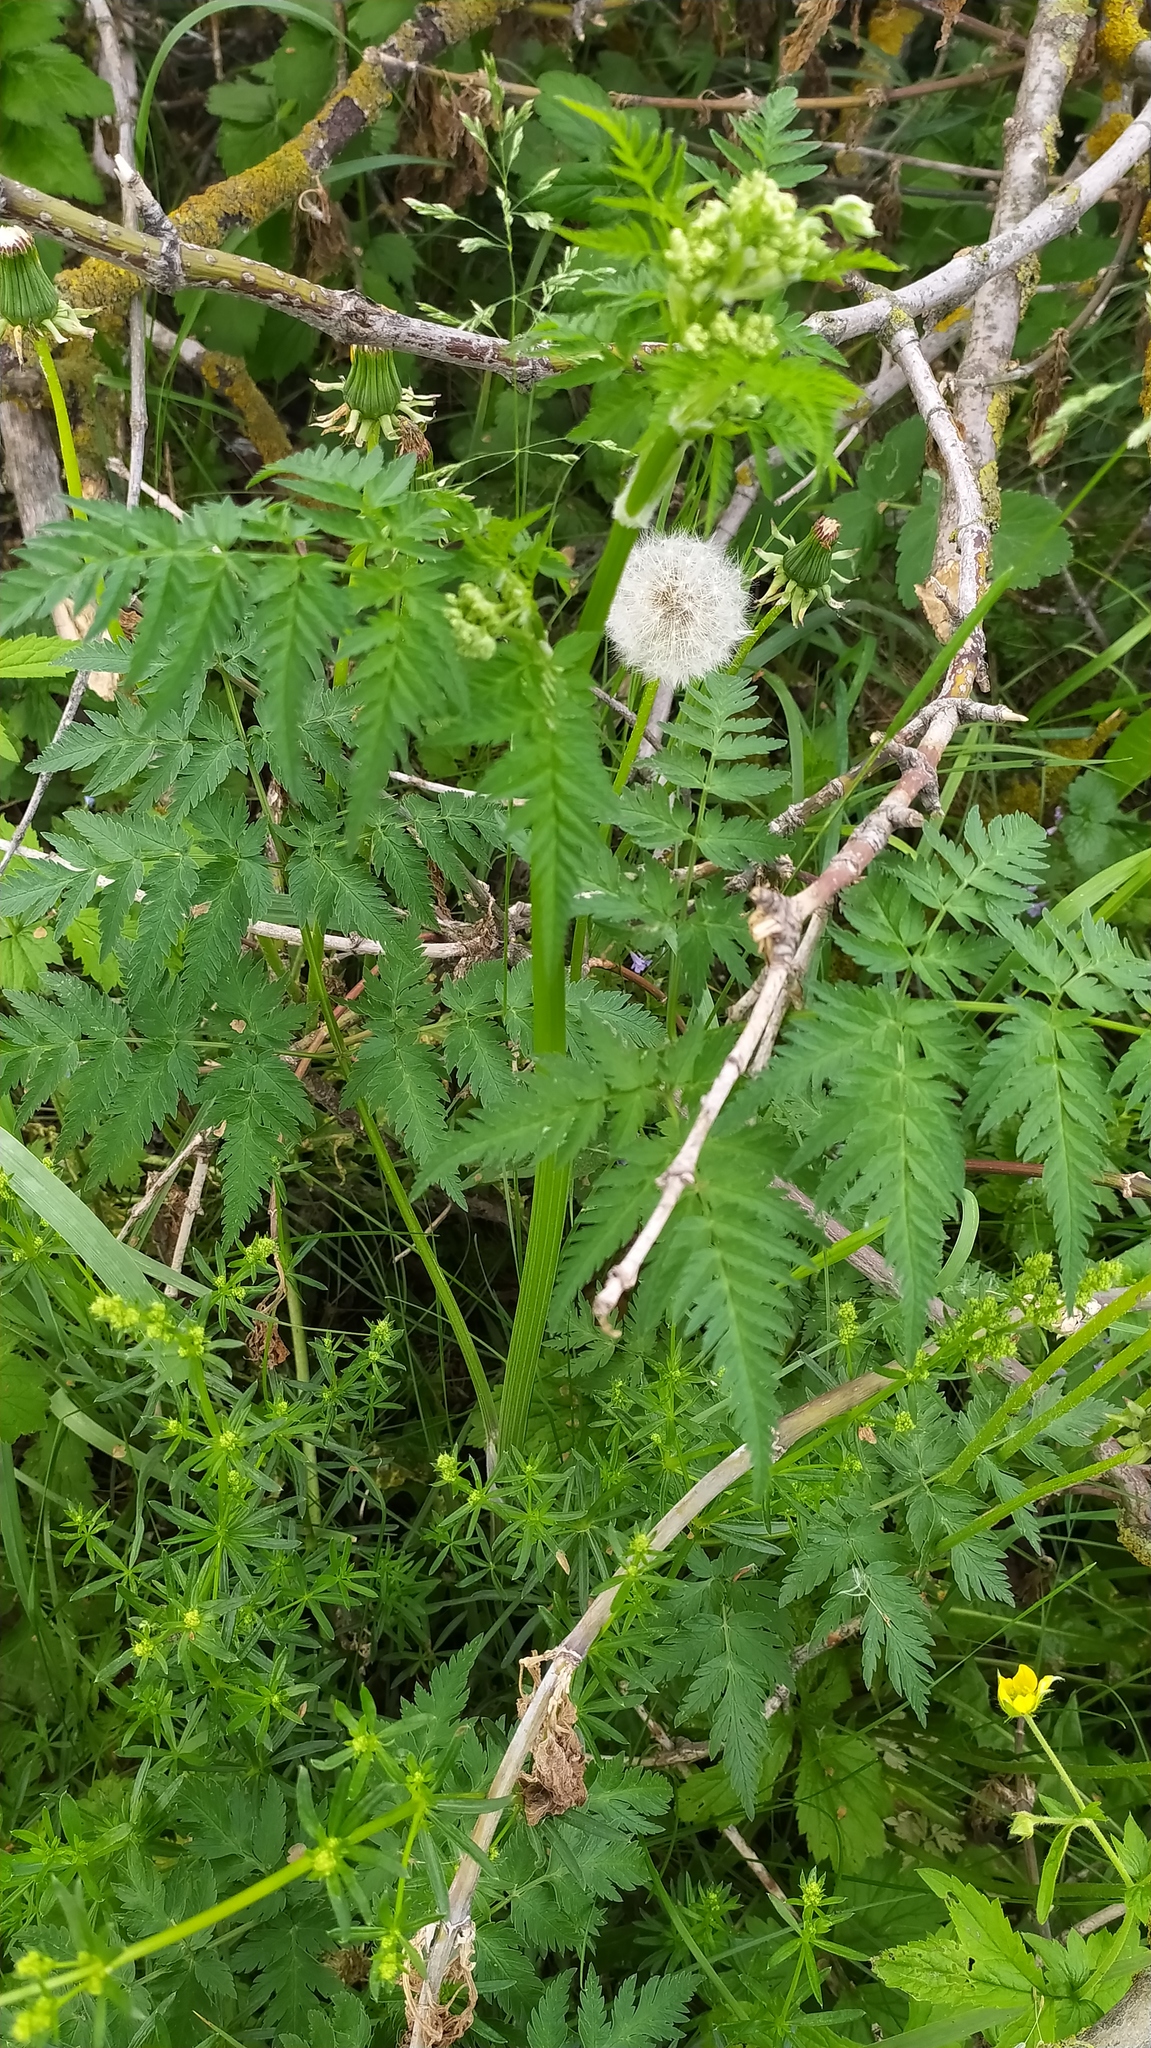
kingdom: Plantae
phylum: Tracheophyta
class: Magnoliopsida
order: Apiales
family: Apiaceae
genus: Anthriscus
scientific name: Anthriscus sylvestris
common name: Cow parsley
